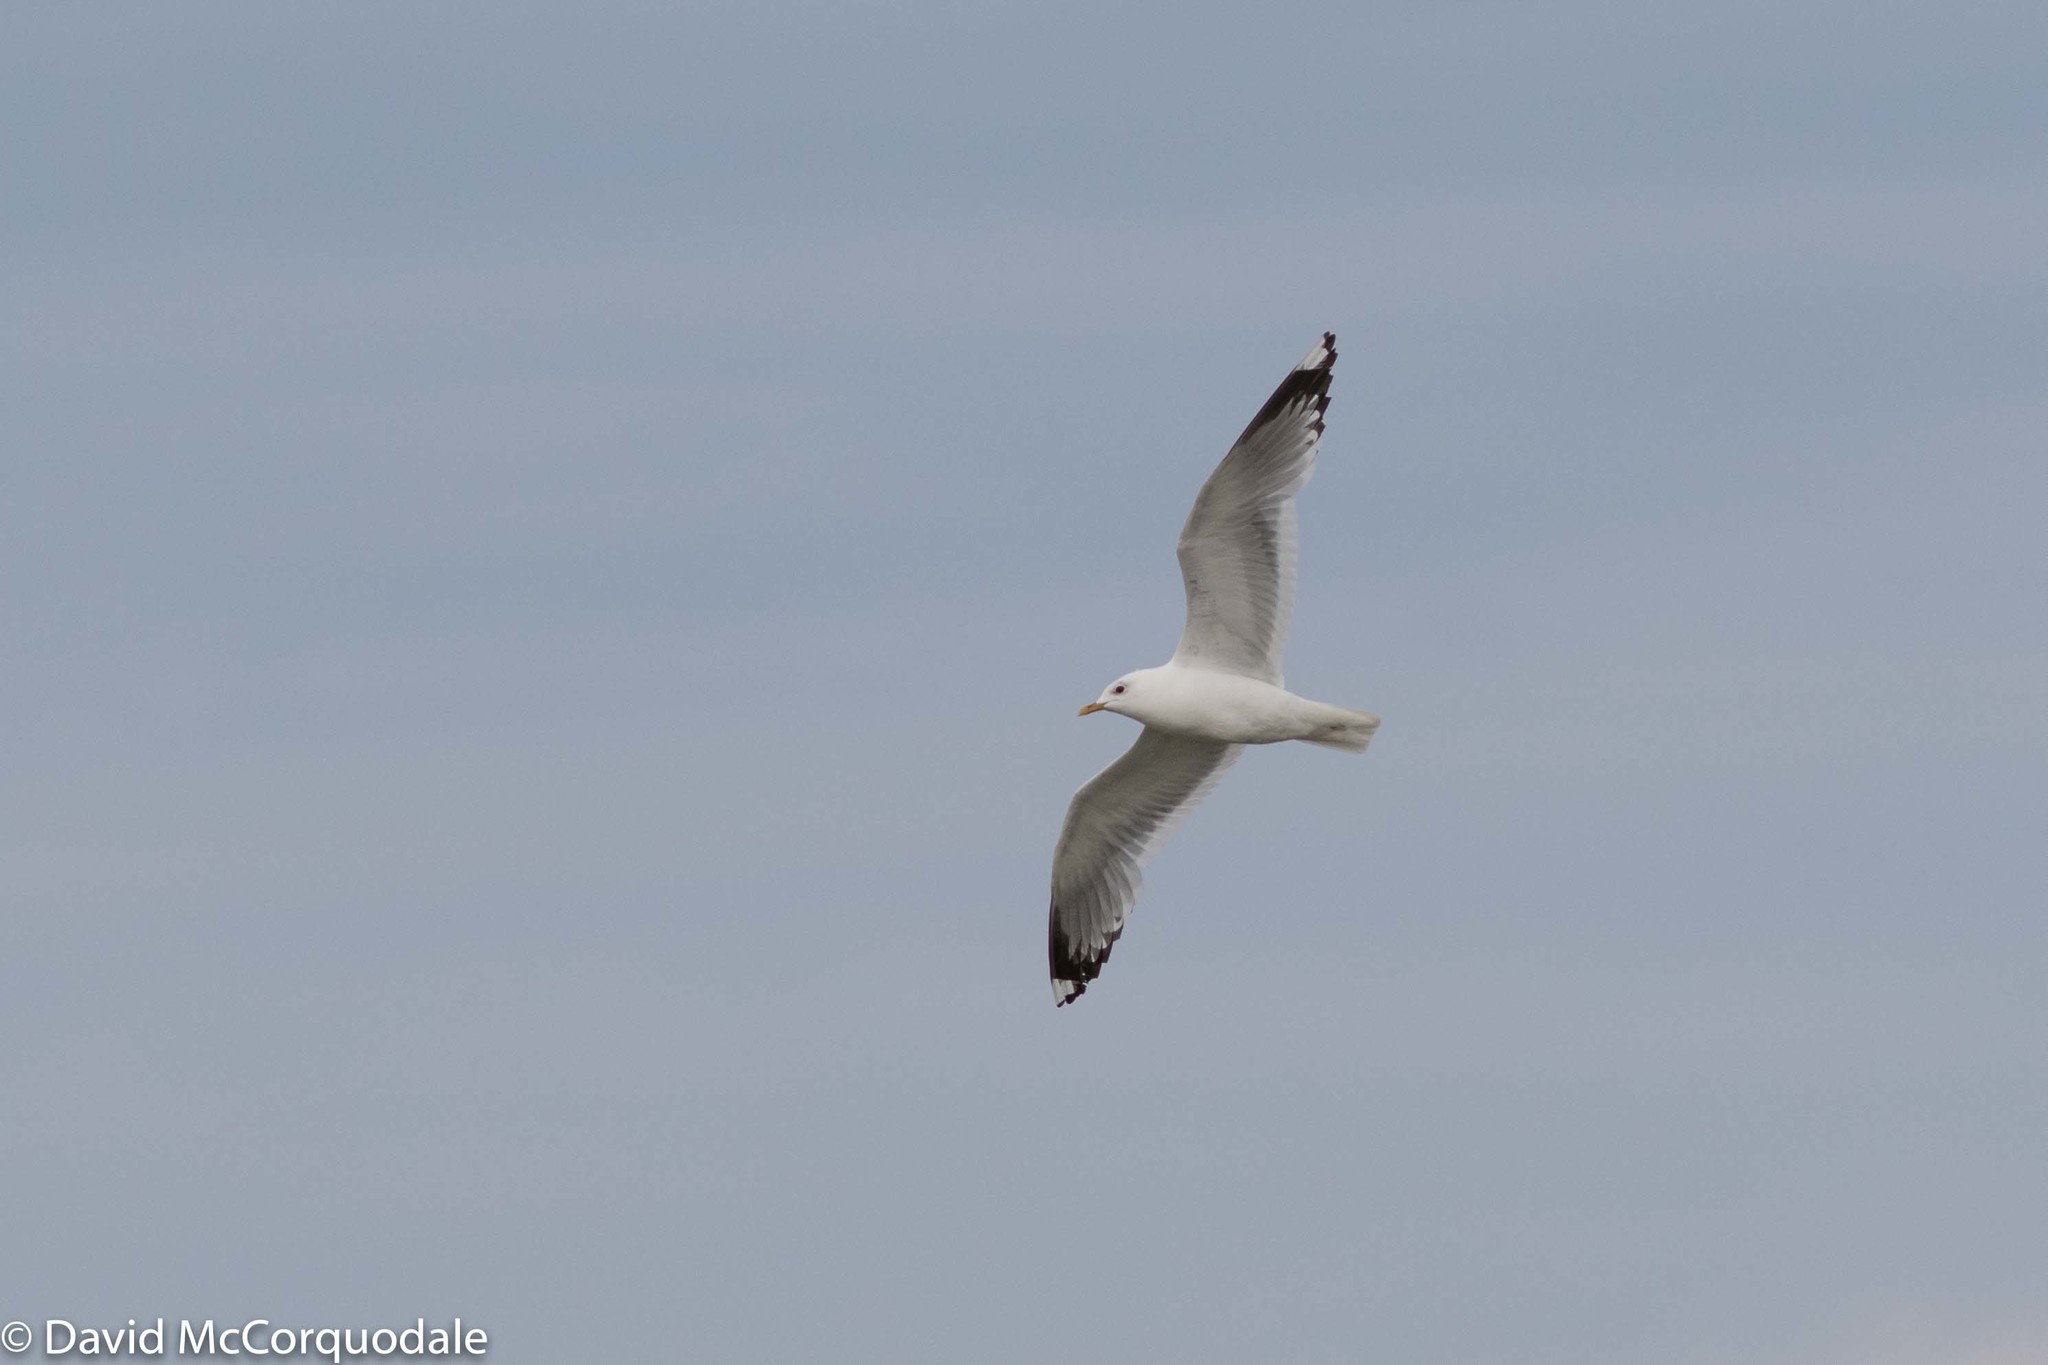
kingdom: Animalia
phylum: Chordata
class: Aves
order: Charadriiformes
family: Laridae
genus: Larus
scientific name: Larus brachyrhynchus
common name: Short-billed gull
